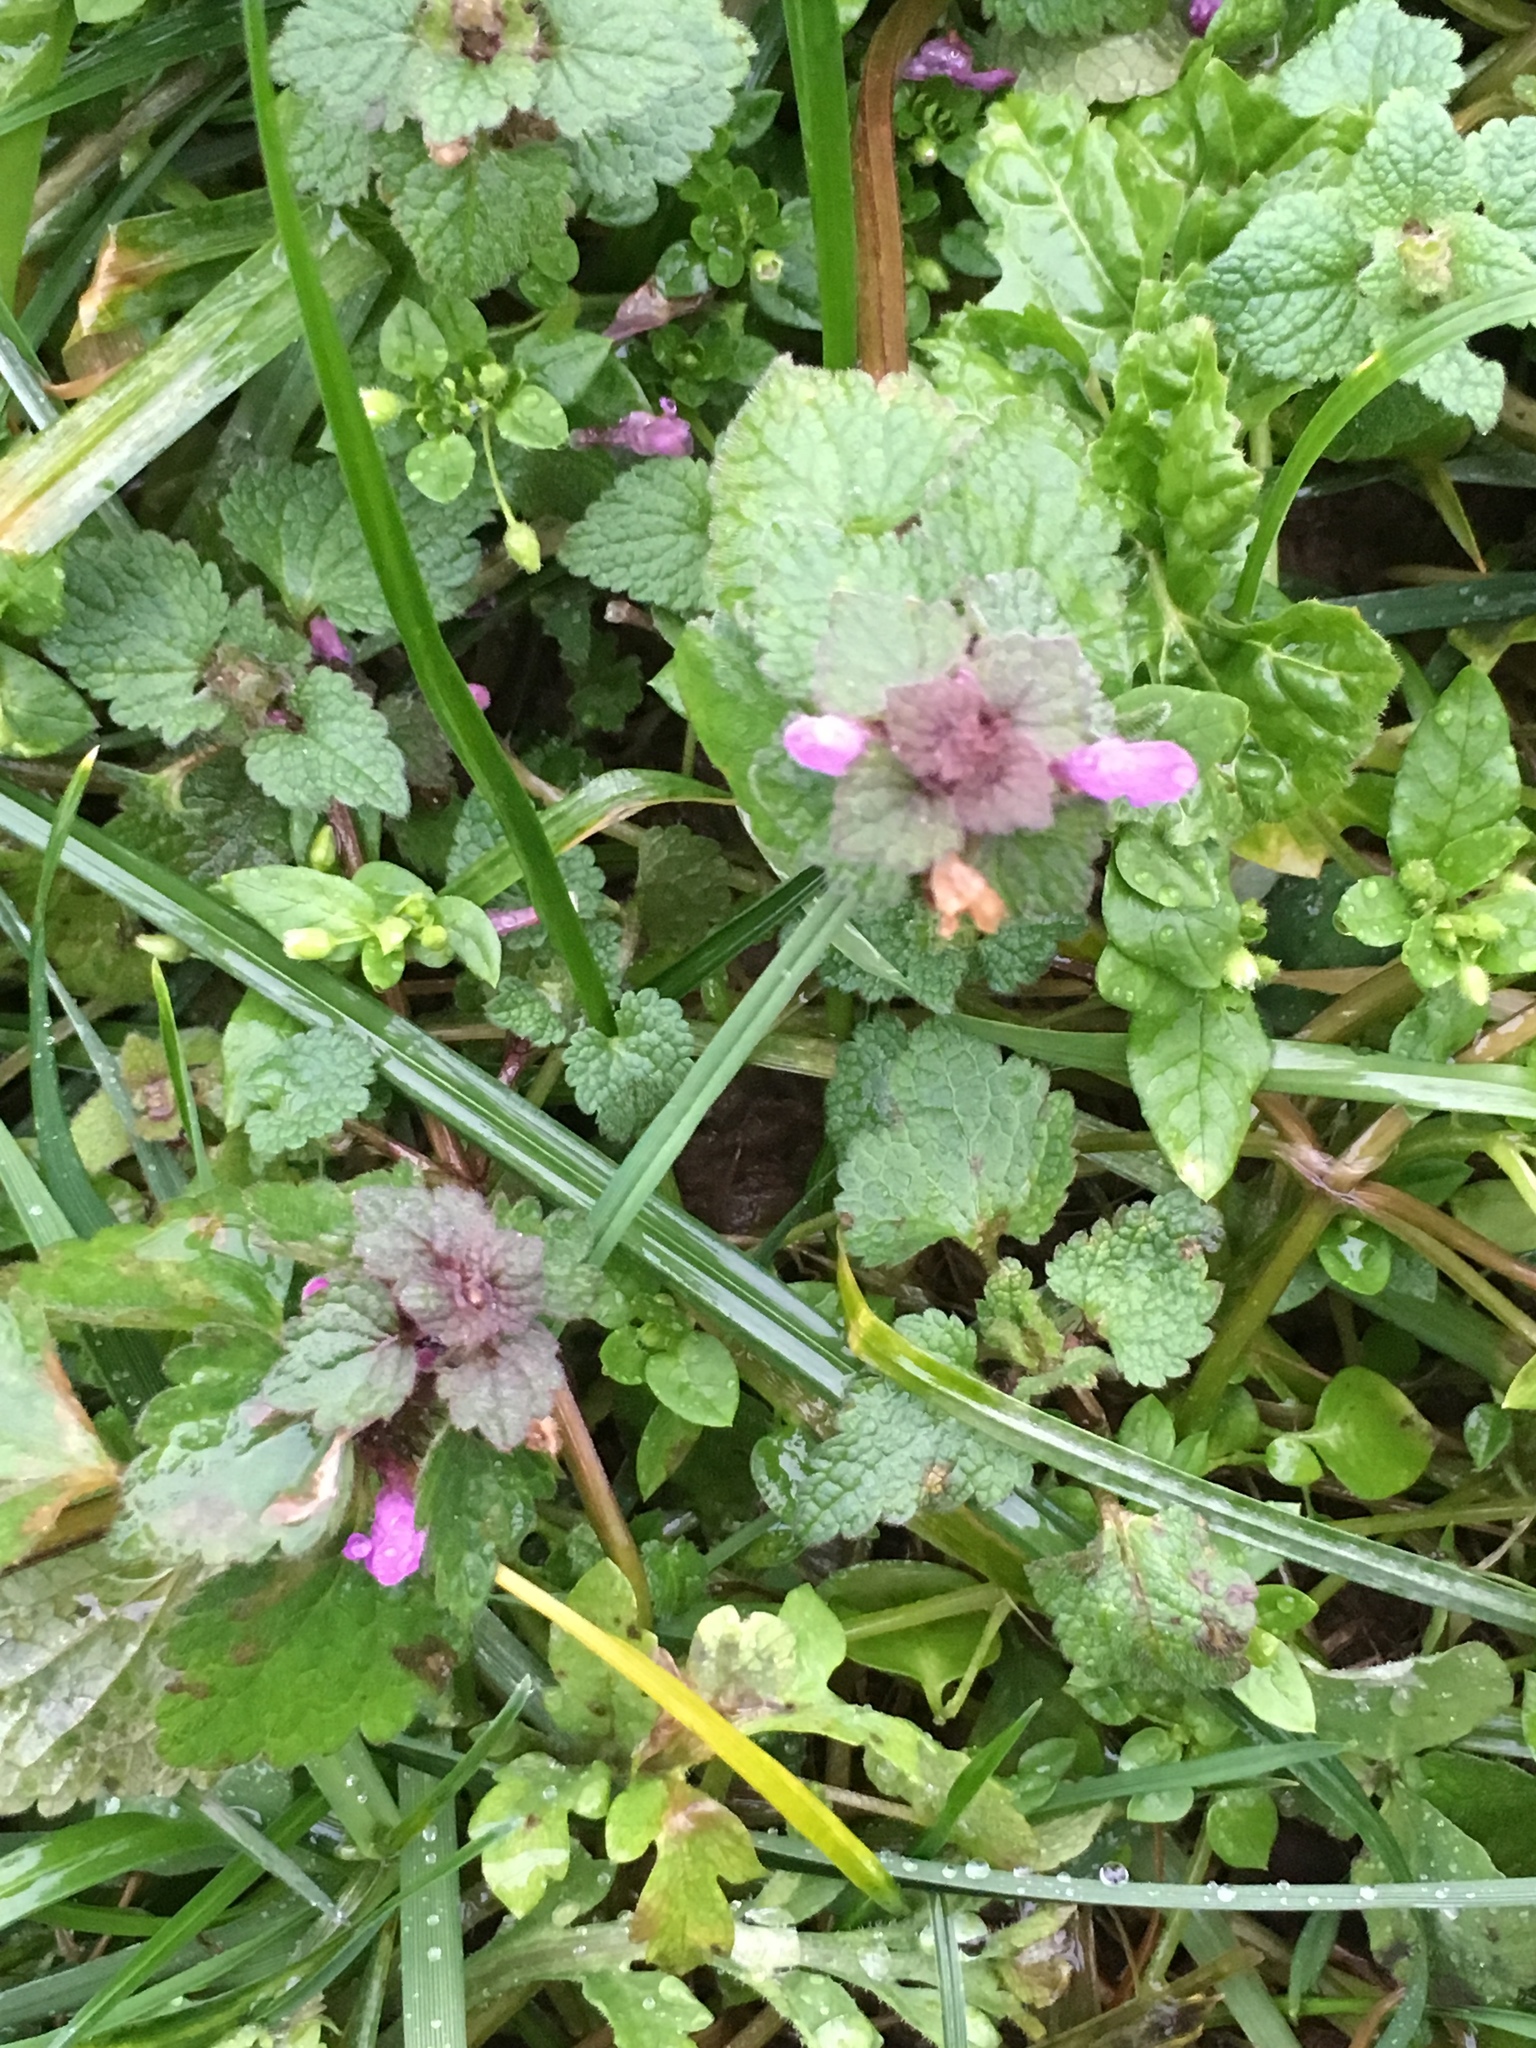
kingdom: Plantae
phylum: Tracheophyta
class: Magnoliopsida
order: Lamiales
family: Lamiaceae
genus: Lamium
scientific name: Lamium purpureum
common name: Red dead-nettle
